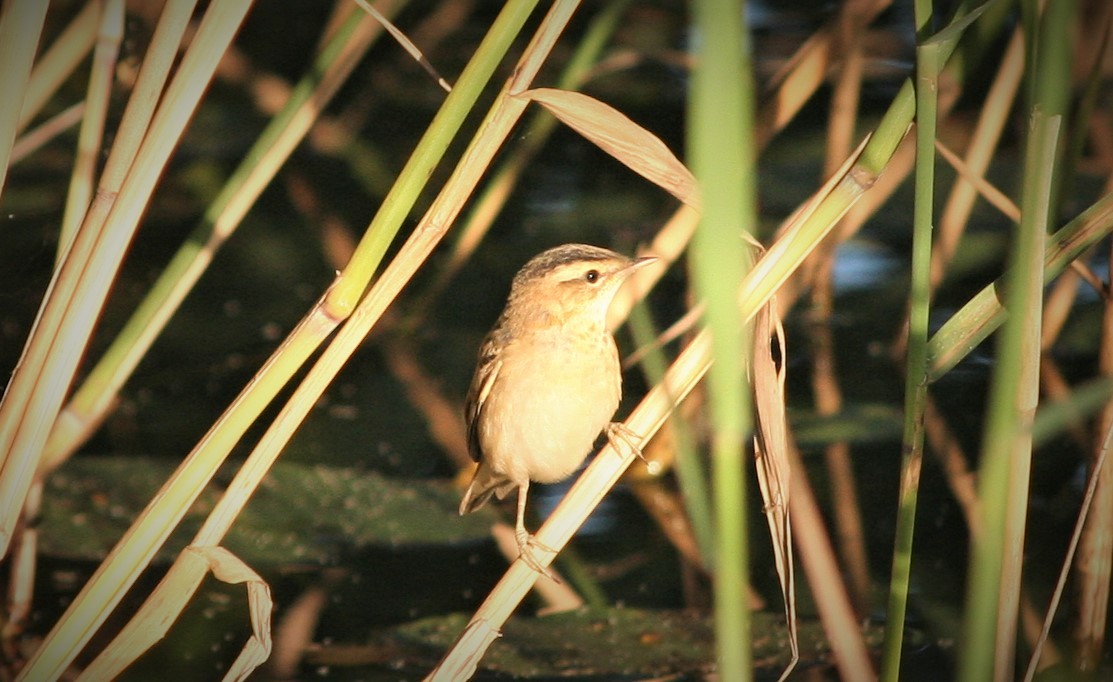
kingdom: Animalia
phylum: Chordata
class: Aves
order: Passeriformes
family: Acrocephalidae
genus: Acrocephalus
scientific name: Acrocephalus schoenobaenus
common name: Sedge warbler
